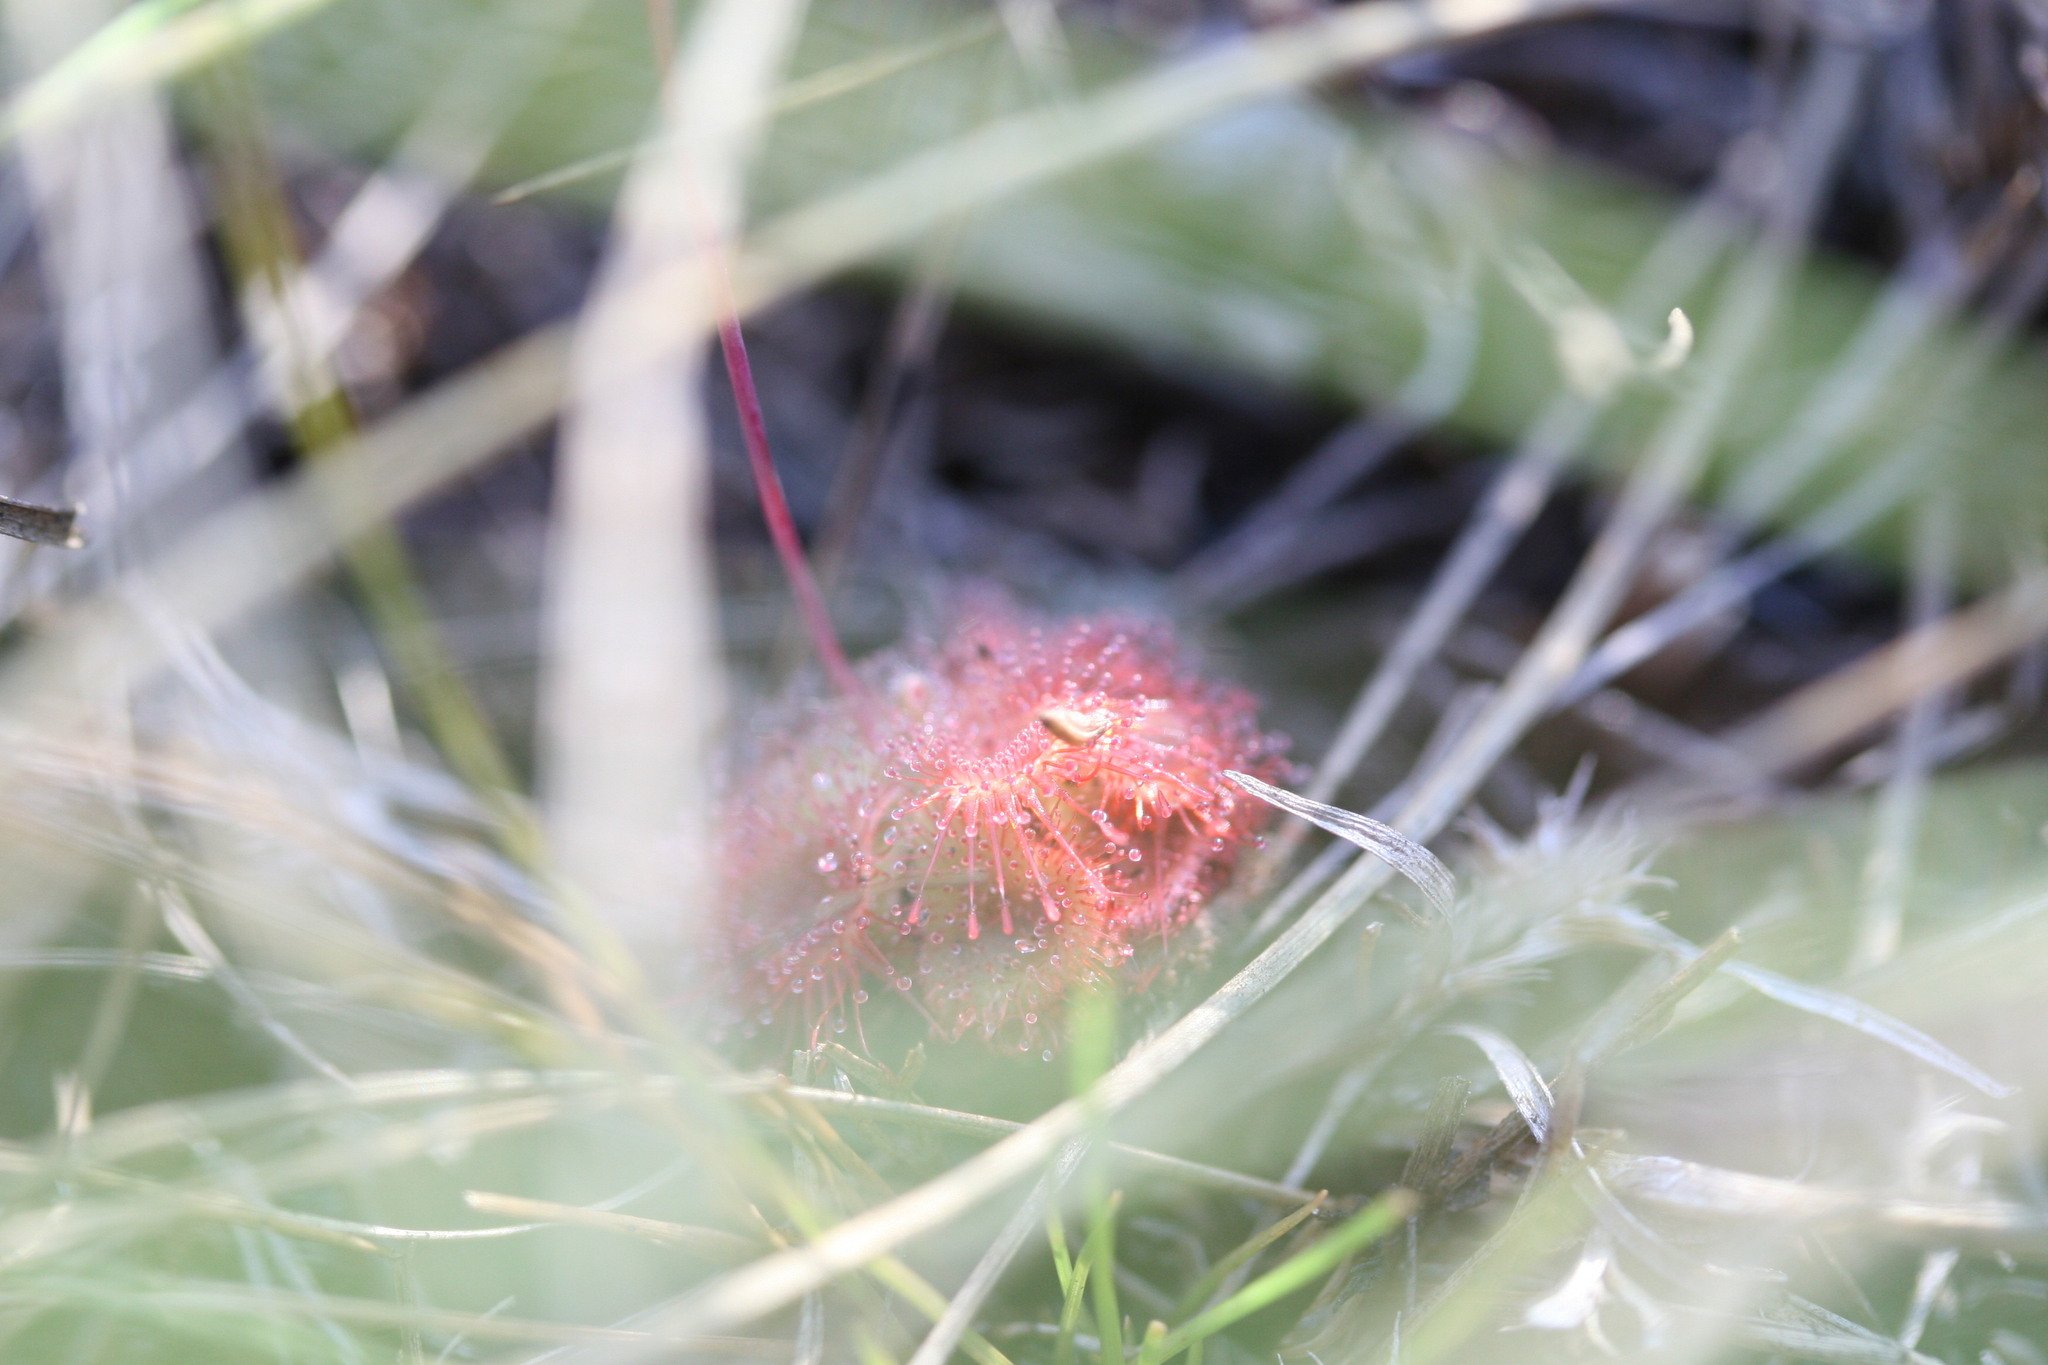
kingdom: Plantae
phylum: Tracheophyta
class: Magnoliopsida
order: Caryophyllales
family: Droseraceae
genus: Drosera
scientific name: Drosera spatulata
